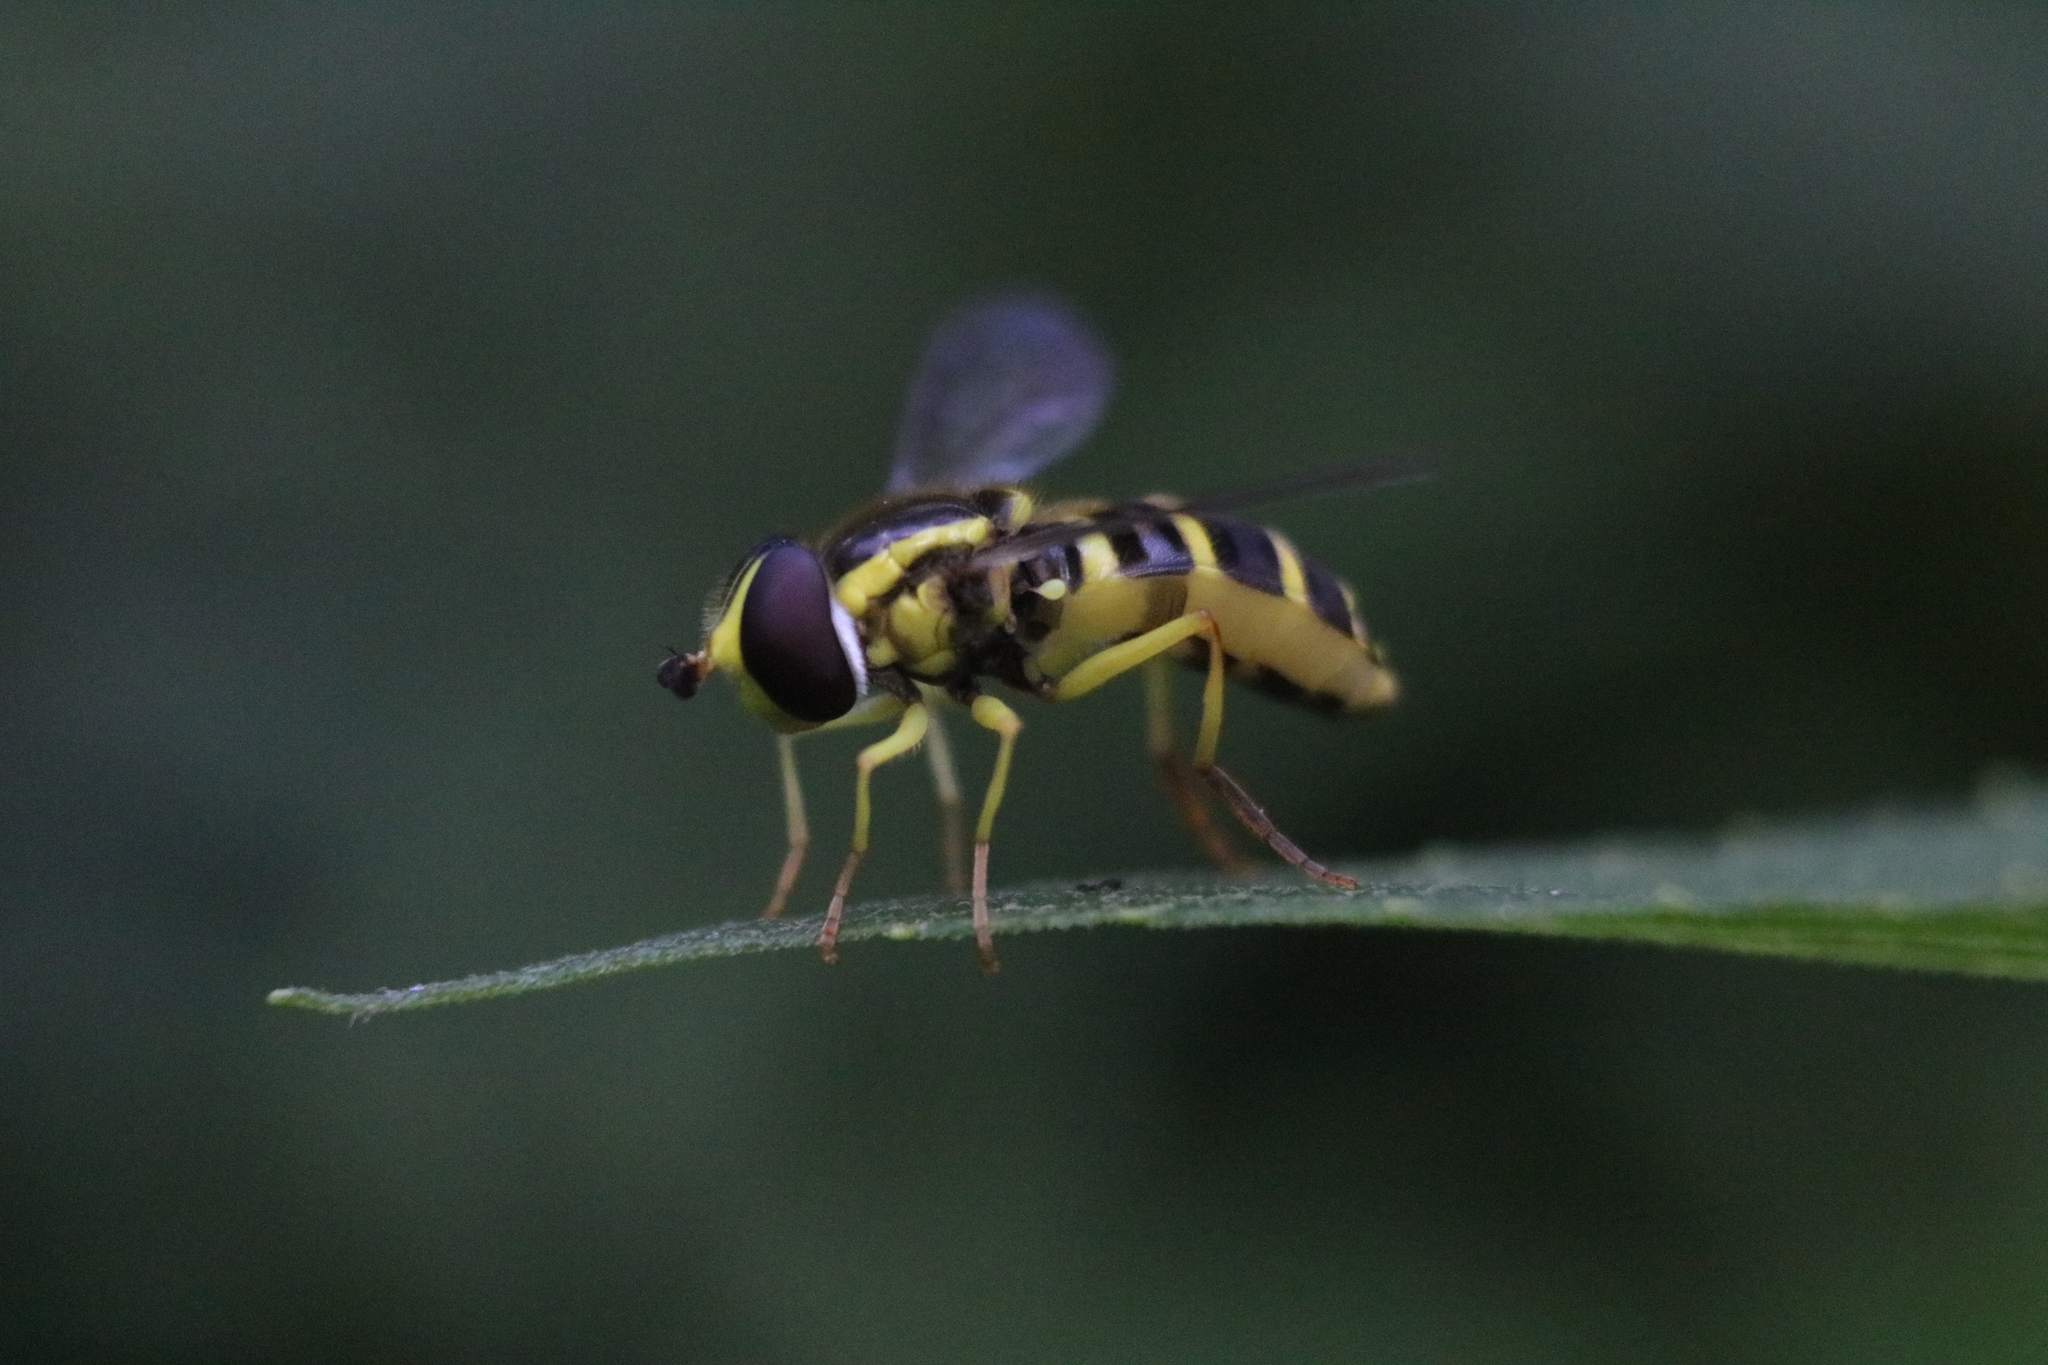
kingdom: Animalia
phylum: Arthropoda
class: Insecta
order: Diptera
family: Syrphidae
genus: Philhelius
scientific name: Philhelius flavipes
